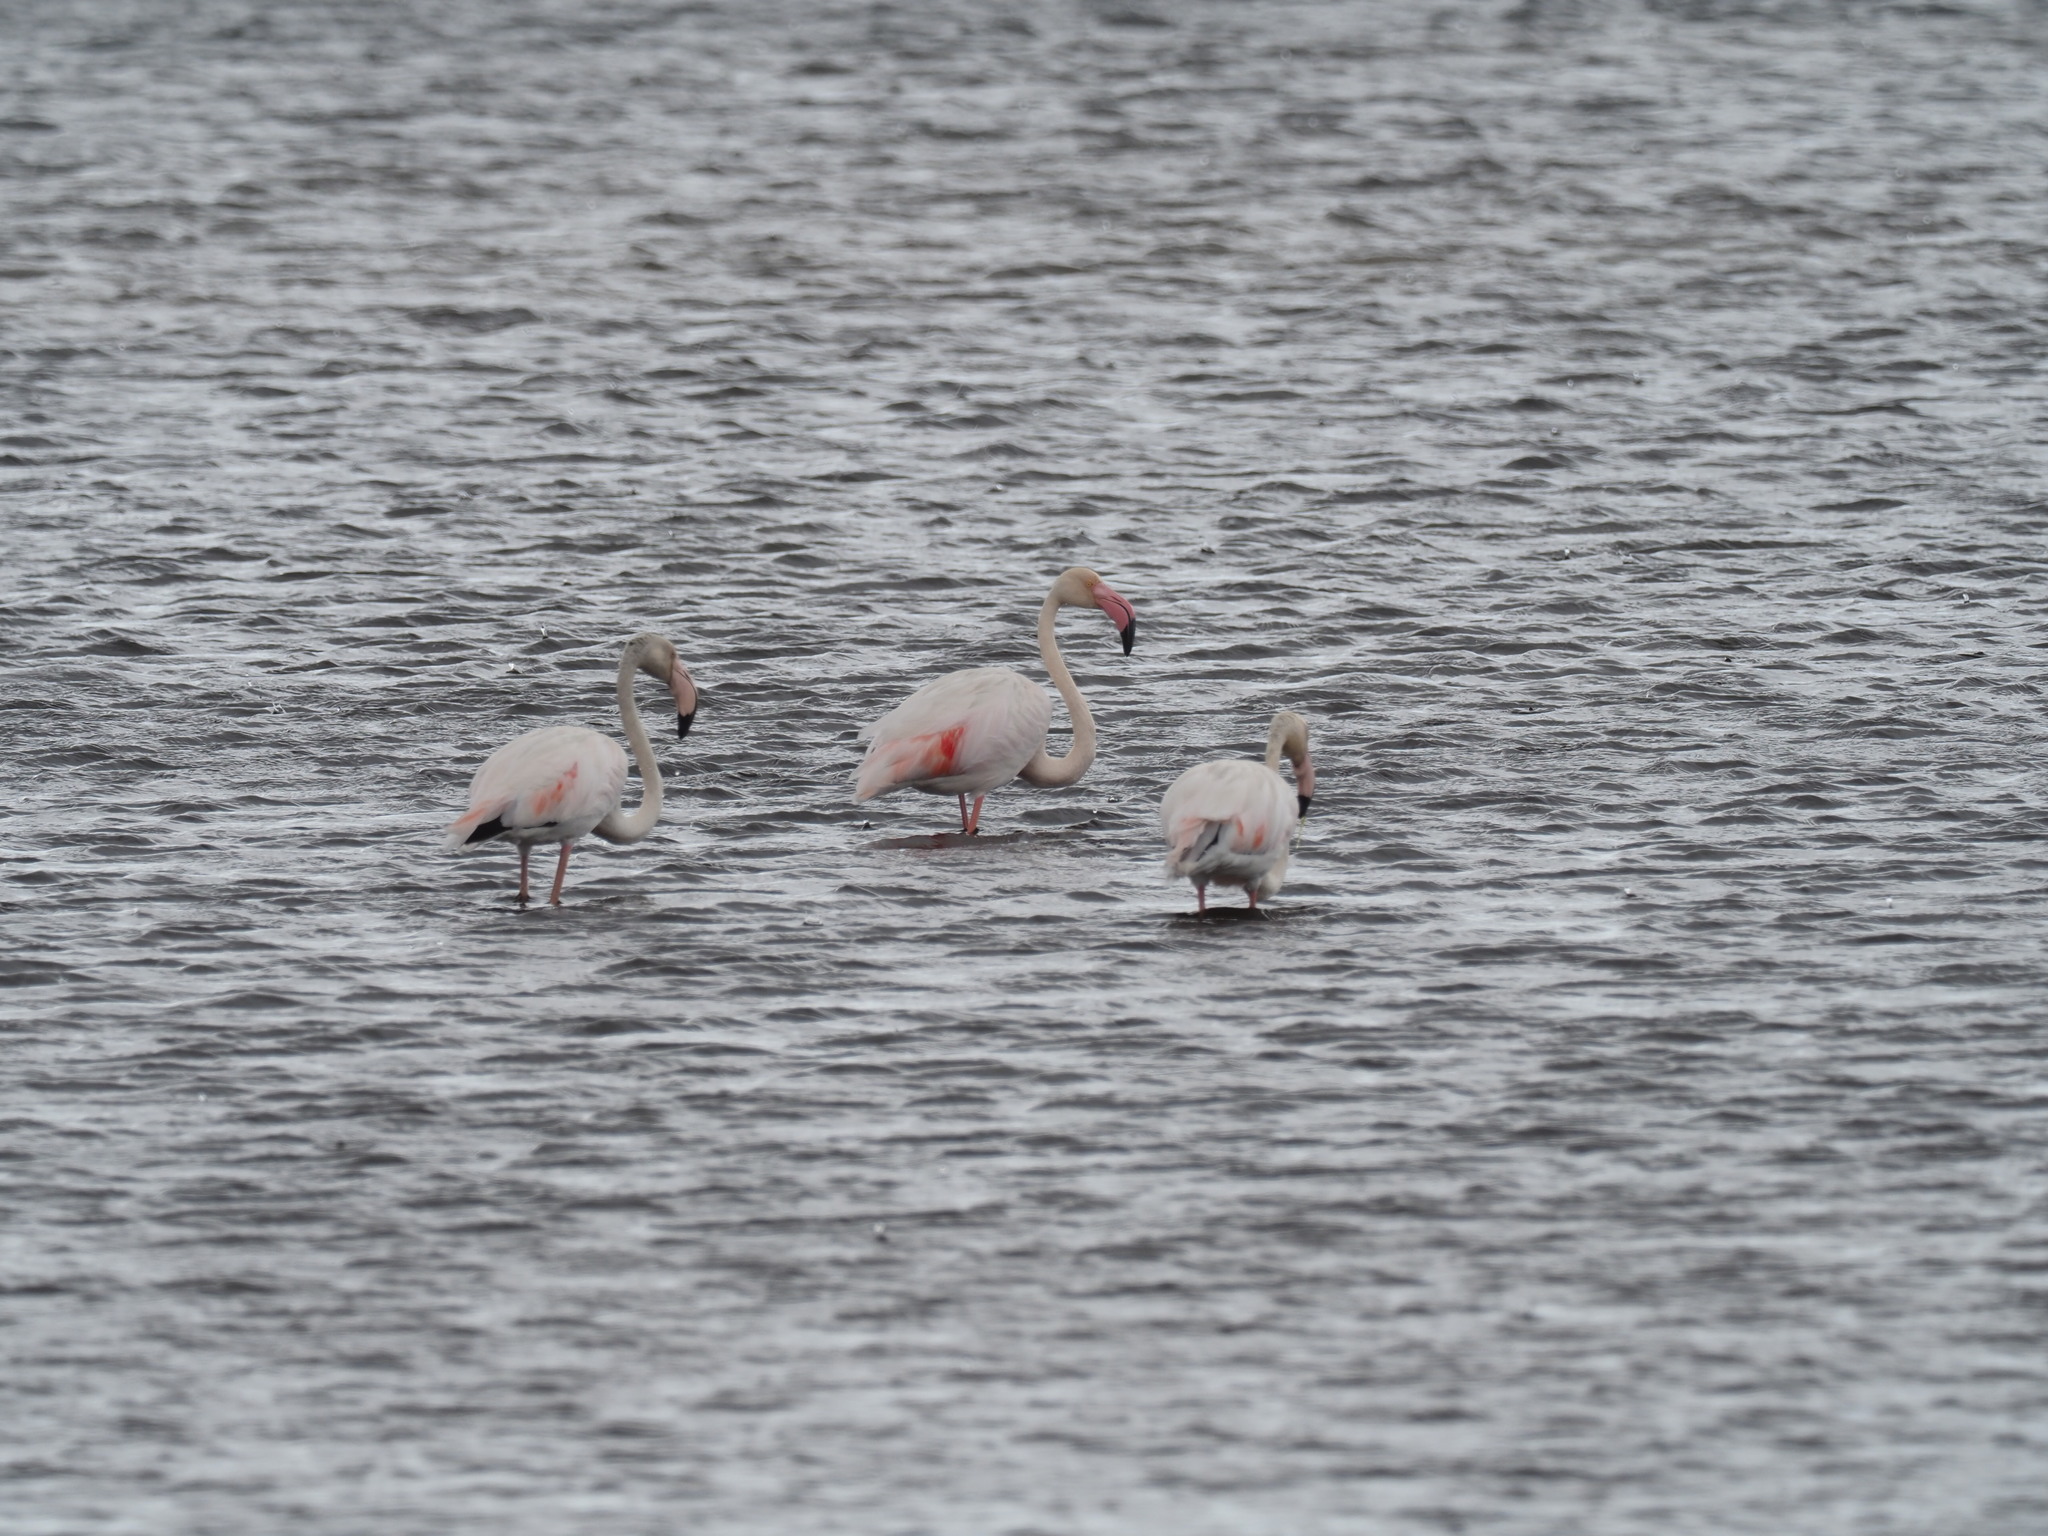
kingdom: Animalia
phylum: Chordata
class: Aves
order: Phoenicopteriformes
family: Phoenicopteridae
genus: Phoenicopterus
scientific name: Phoenicopterus roseus
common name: Greater flamingo
